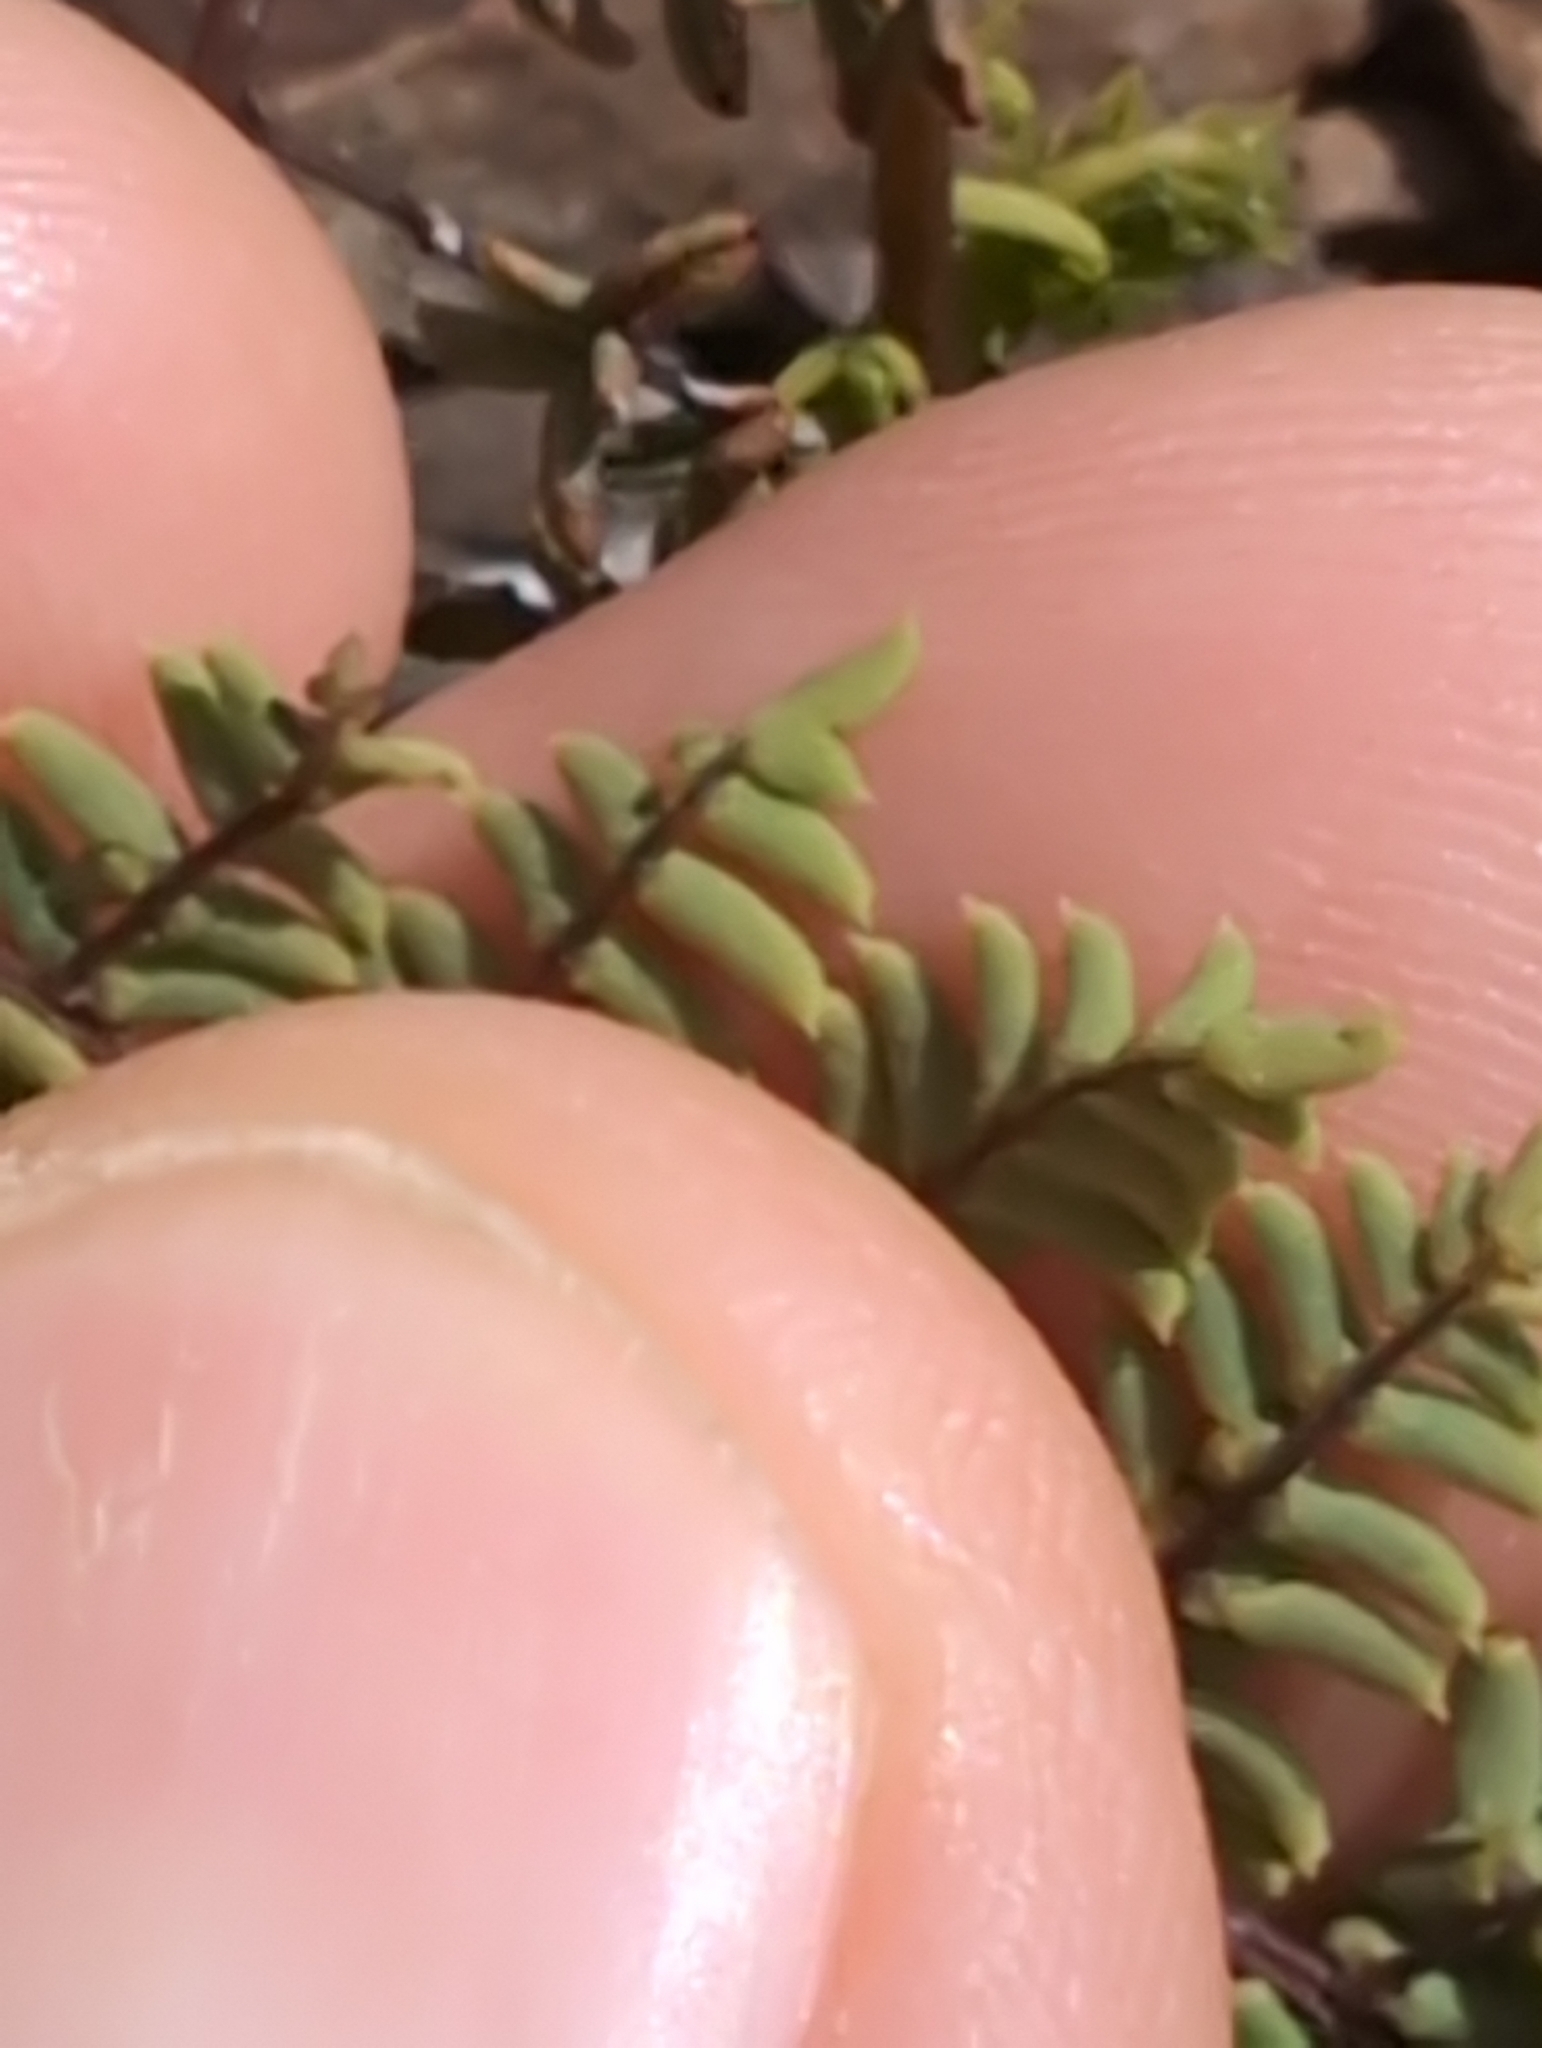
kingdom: Plantae
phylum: Tracheophyta
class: Polypodiopsida
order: Polypodiales
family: Pteridaceae
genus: Pellaea
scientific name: Pellaea mucronata
